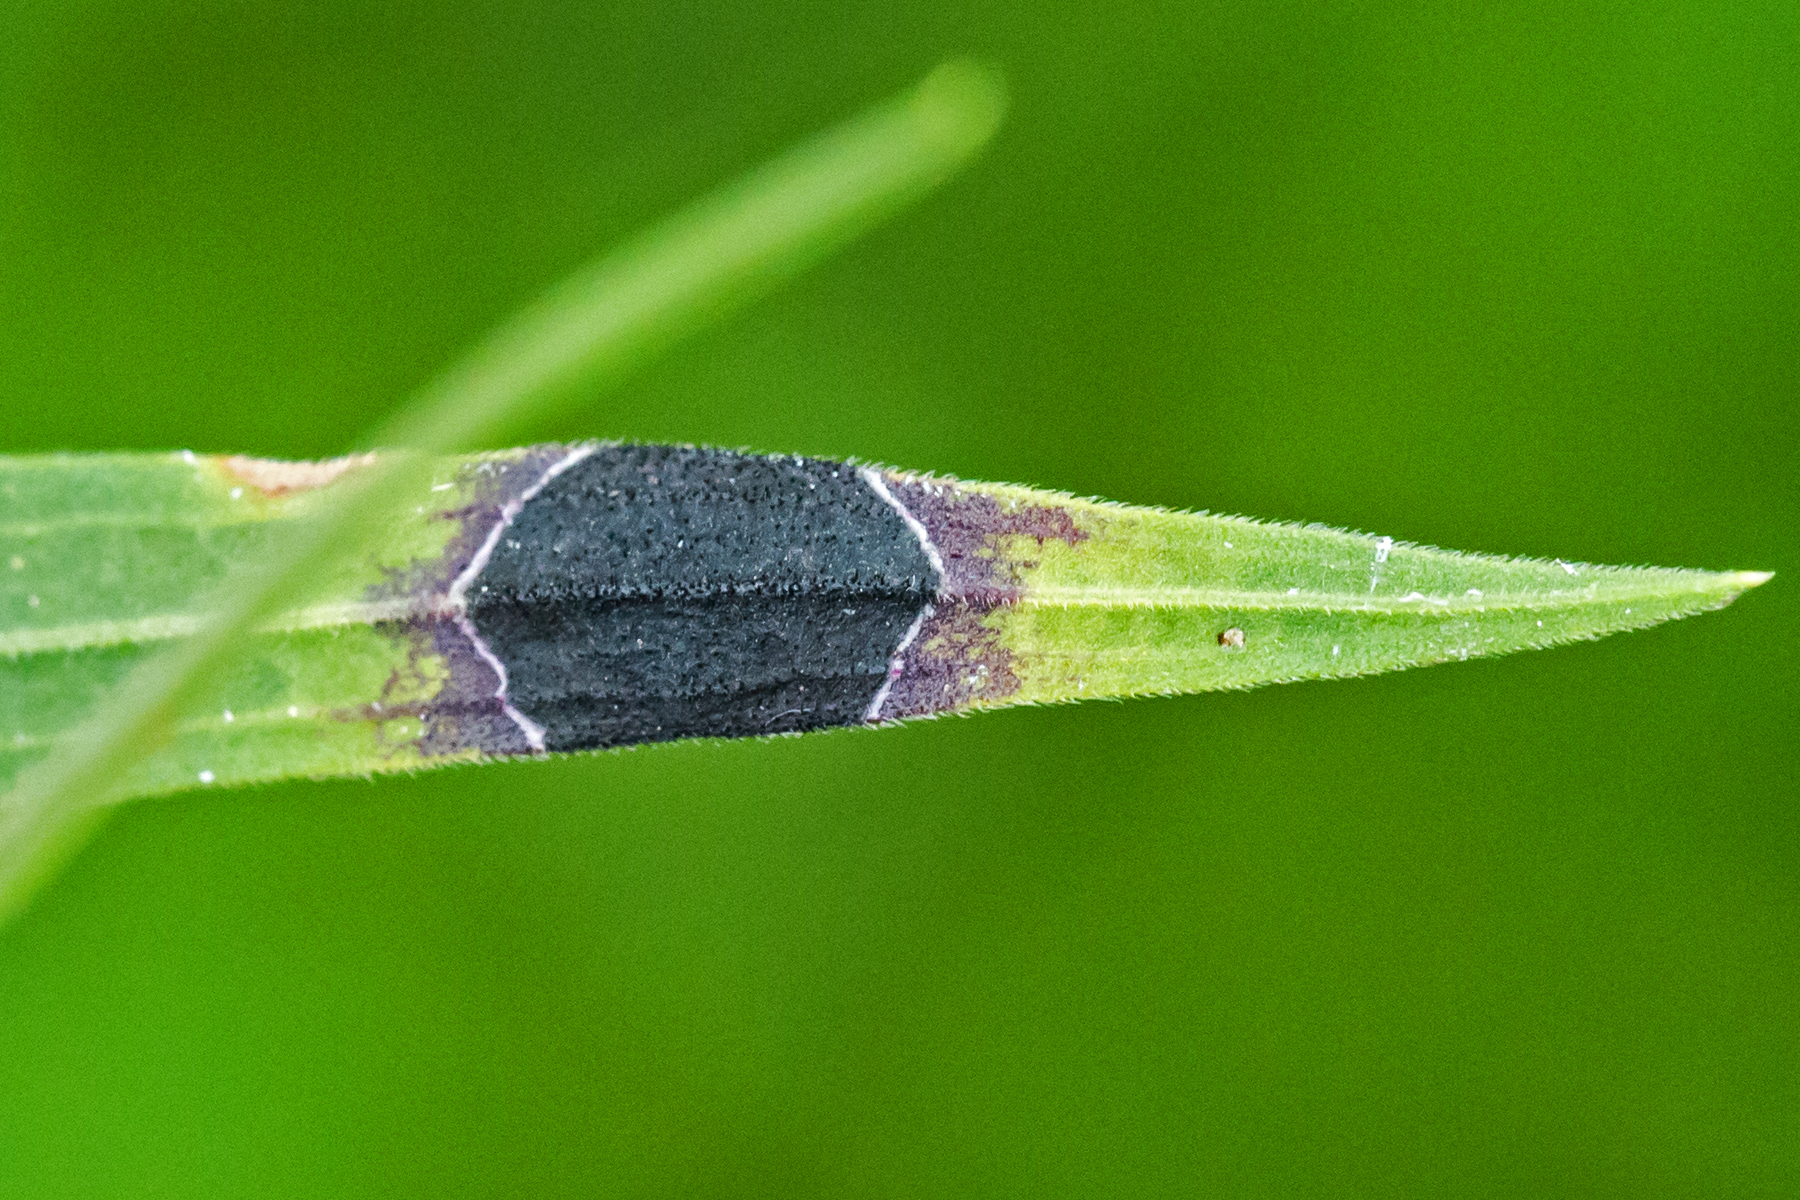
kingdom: Animalia
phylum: Arthropoda
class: Insecta
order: Diptera
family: Cecidomyiidae
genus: Asteromyia
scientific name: Asteromyia euthamiae
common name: Euthamia leaf gall midge
